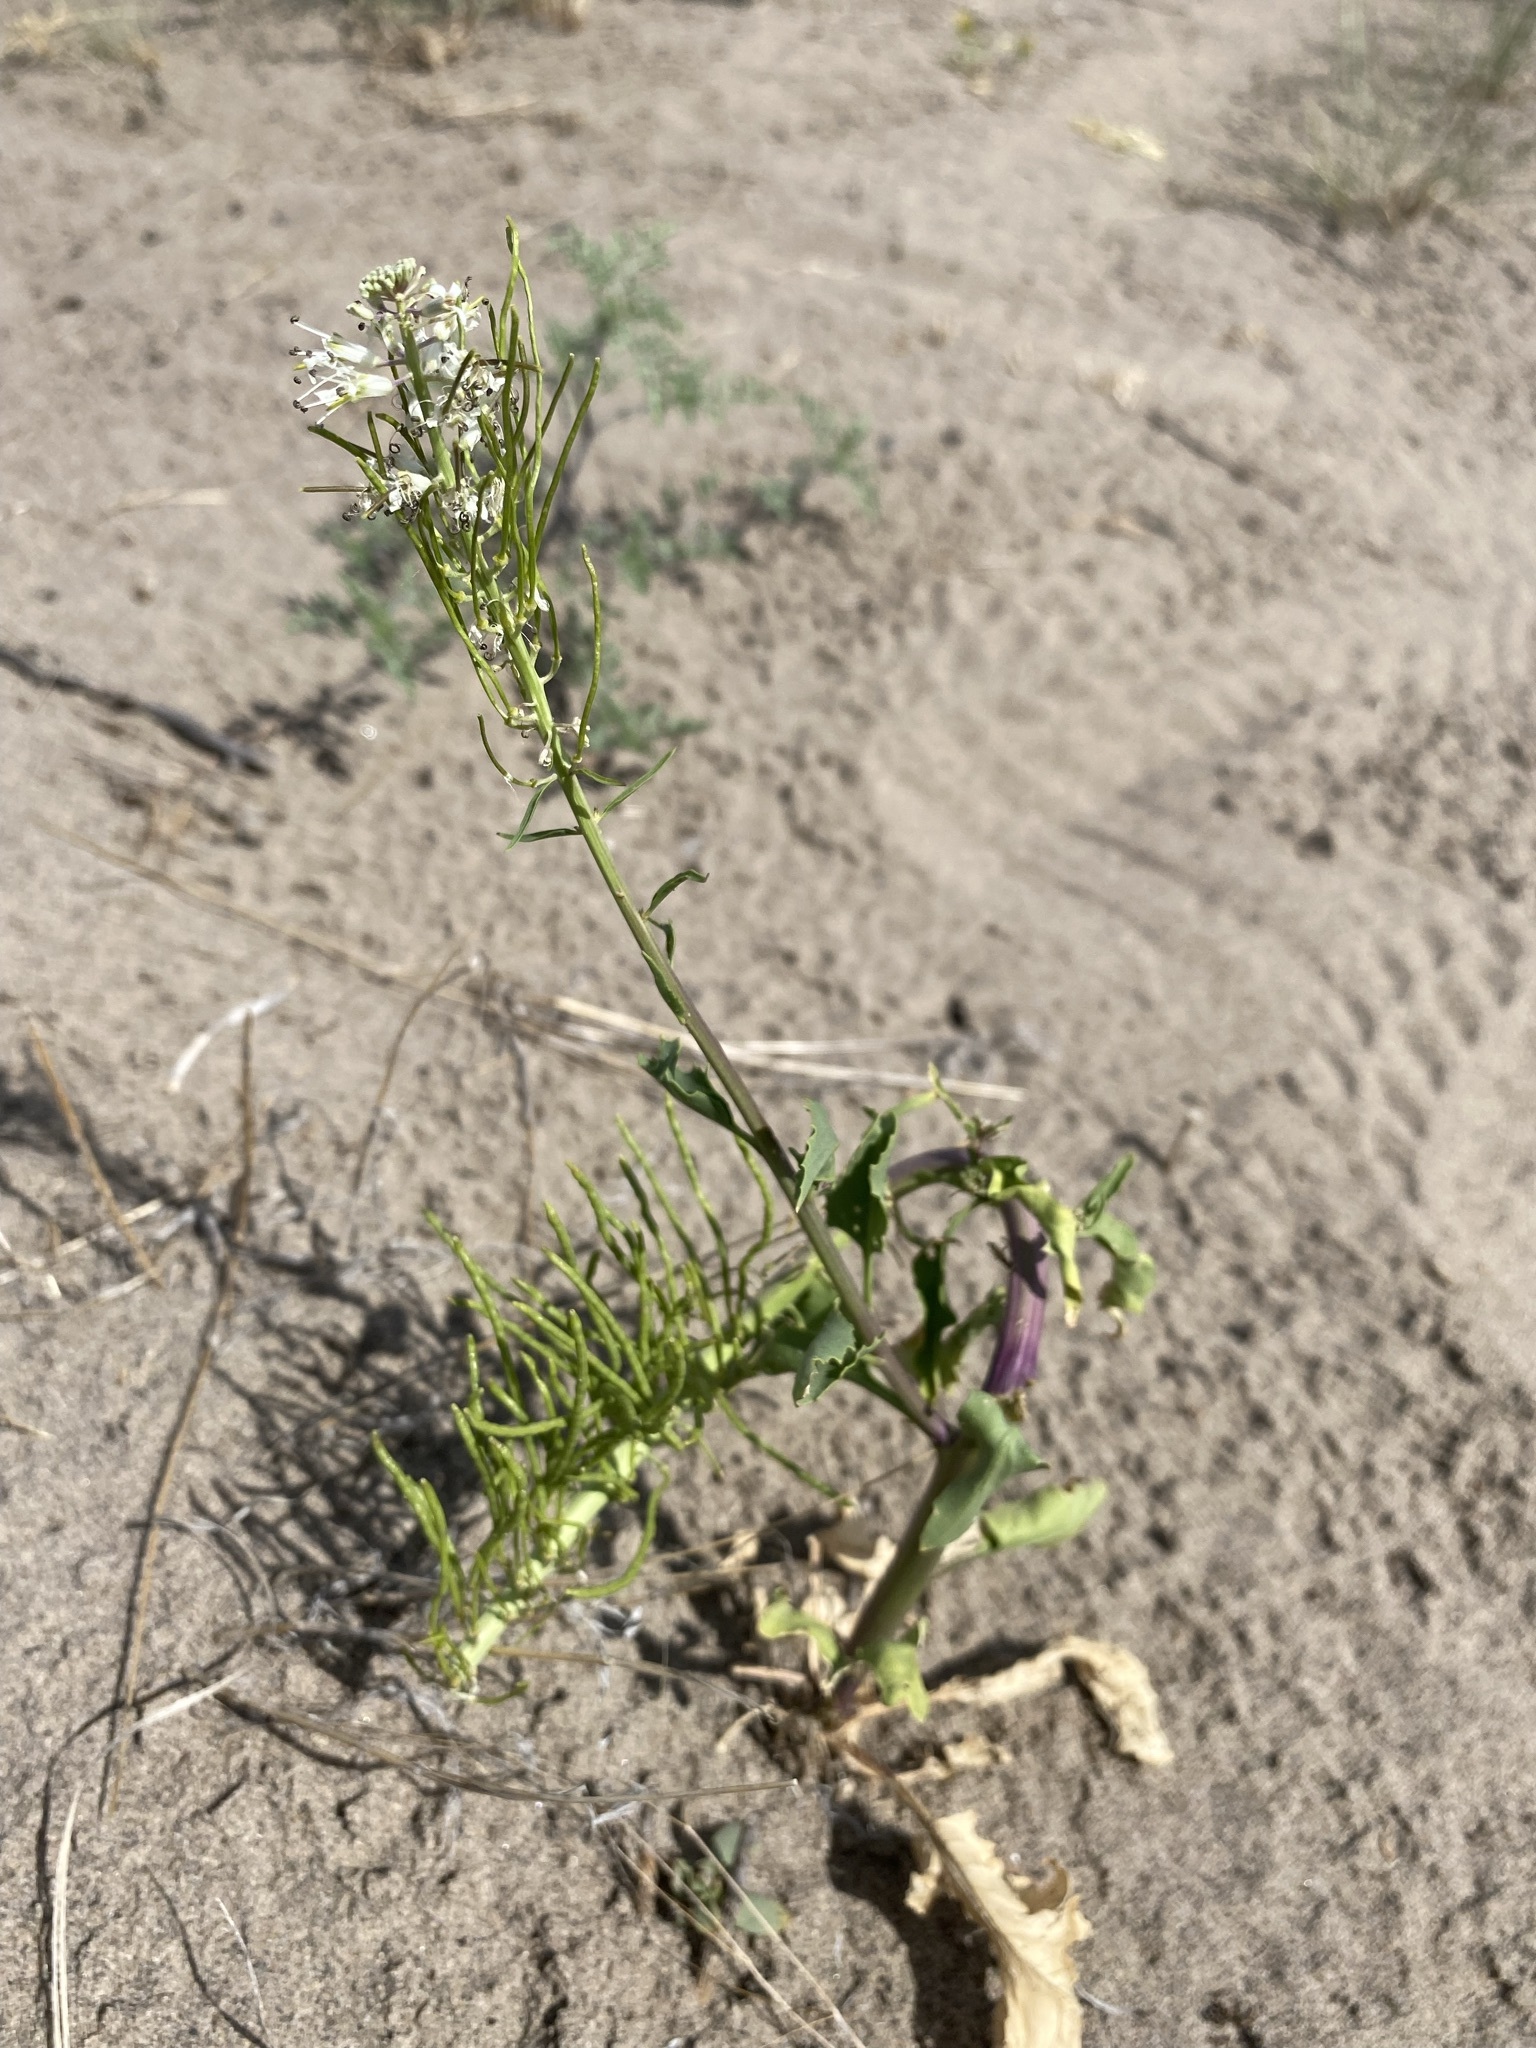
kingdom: Plantae
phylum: Tracheophyta
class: Magnoliopsida
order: Brassicales
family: Brassicaceae
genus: Thelypodium
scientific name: Thelypodium milleflorum
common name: Many-flowered thelypody
